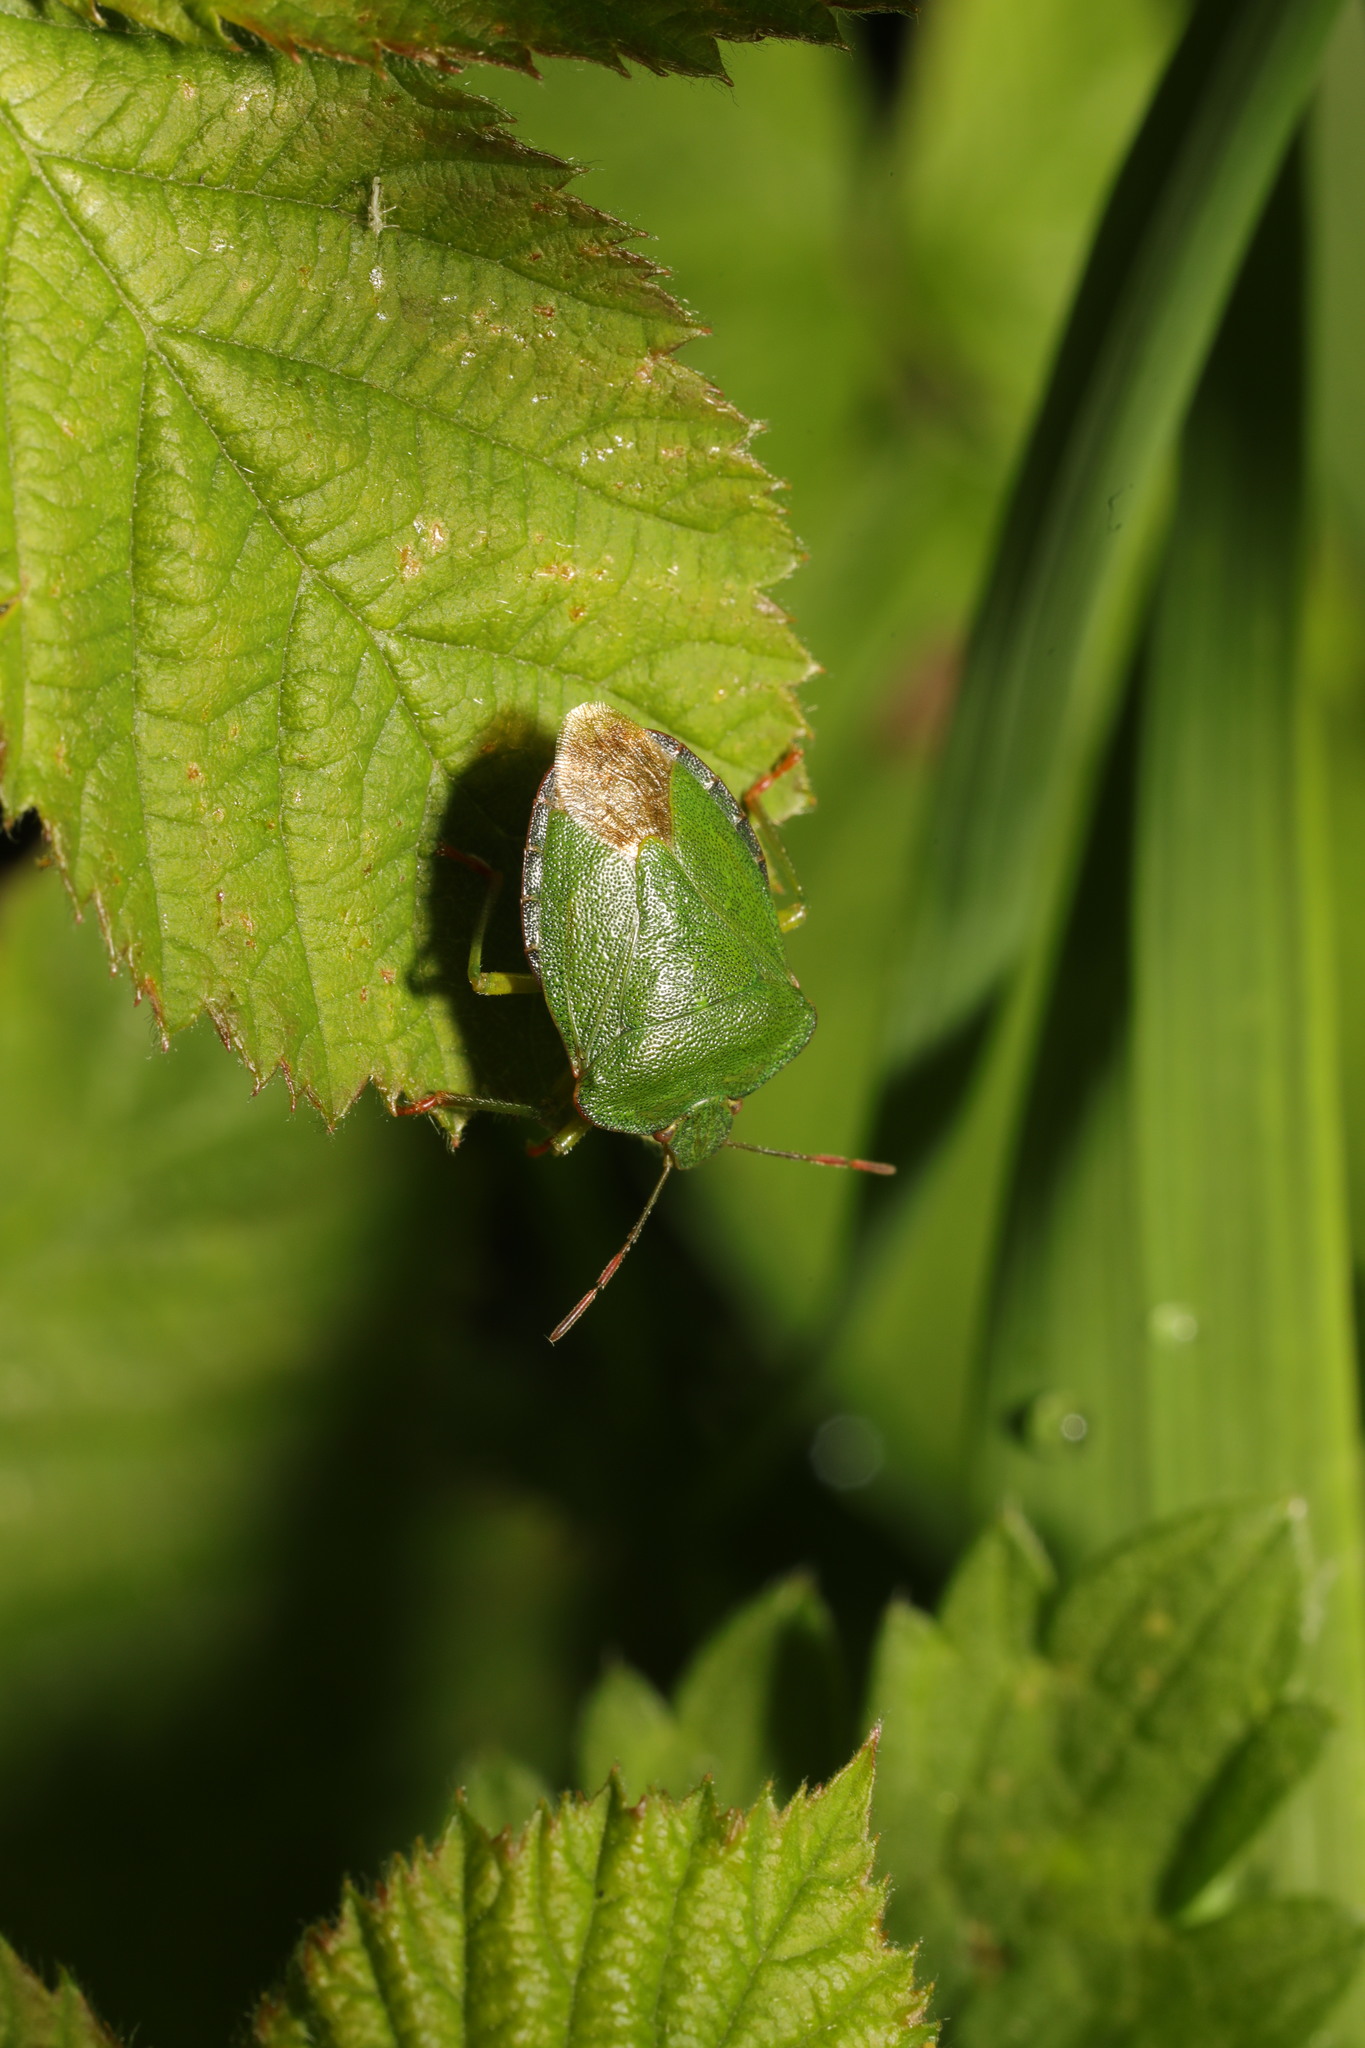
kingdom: Animalia
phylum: Arthropoda
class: Insecta
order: Hemiptera
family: Pentatomidae
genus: Palomena
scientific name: Palomena prasina
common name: Green shieldbug
